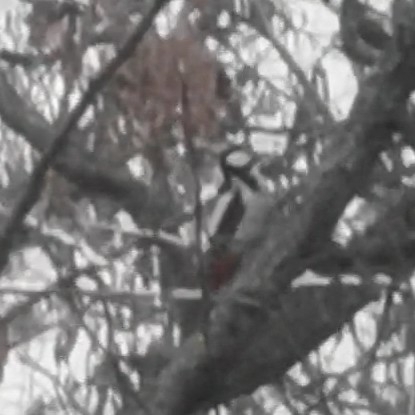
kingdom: Animalia
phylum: Chordata
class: Aves
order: Piciformes
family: Picidae
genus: Dendrocopos
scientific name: Dendrocopos major
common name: Great spotted woodpecker
